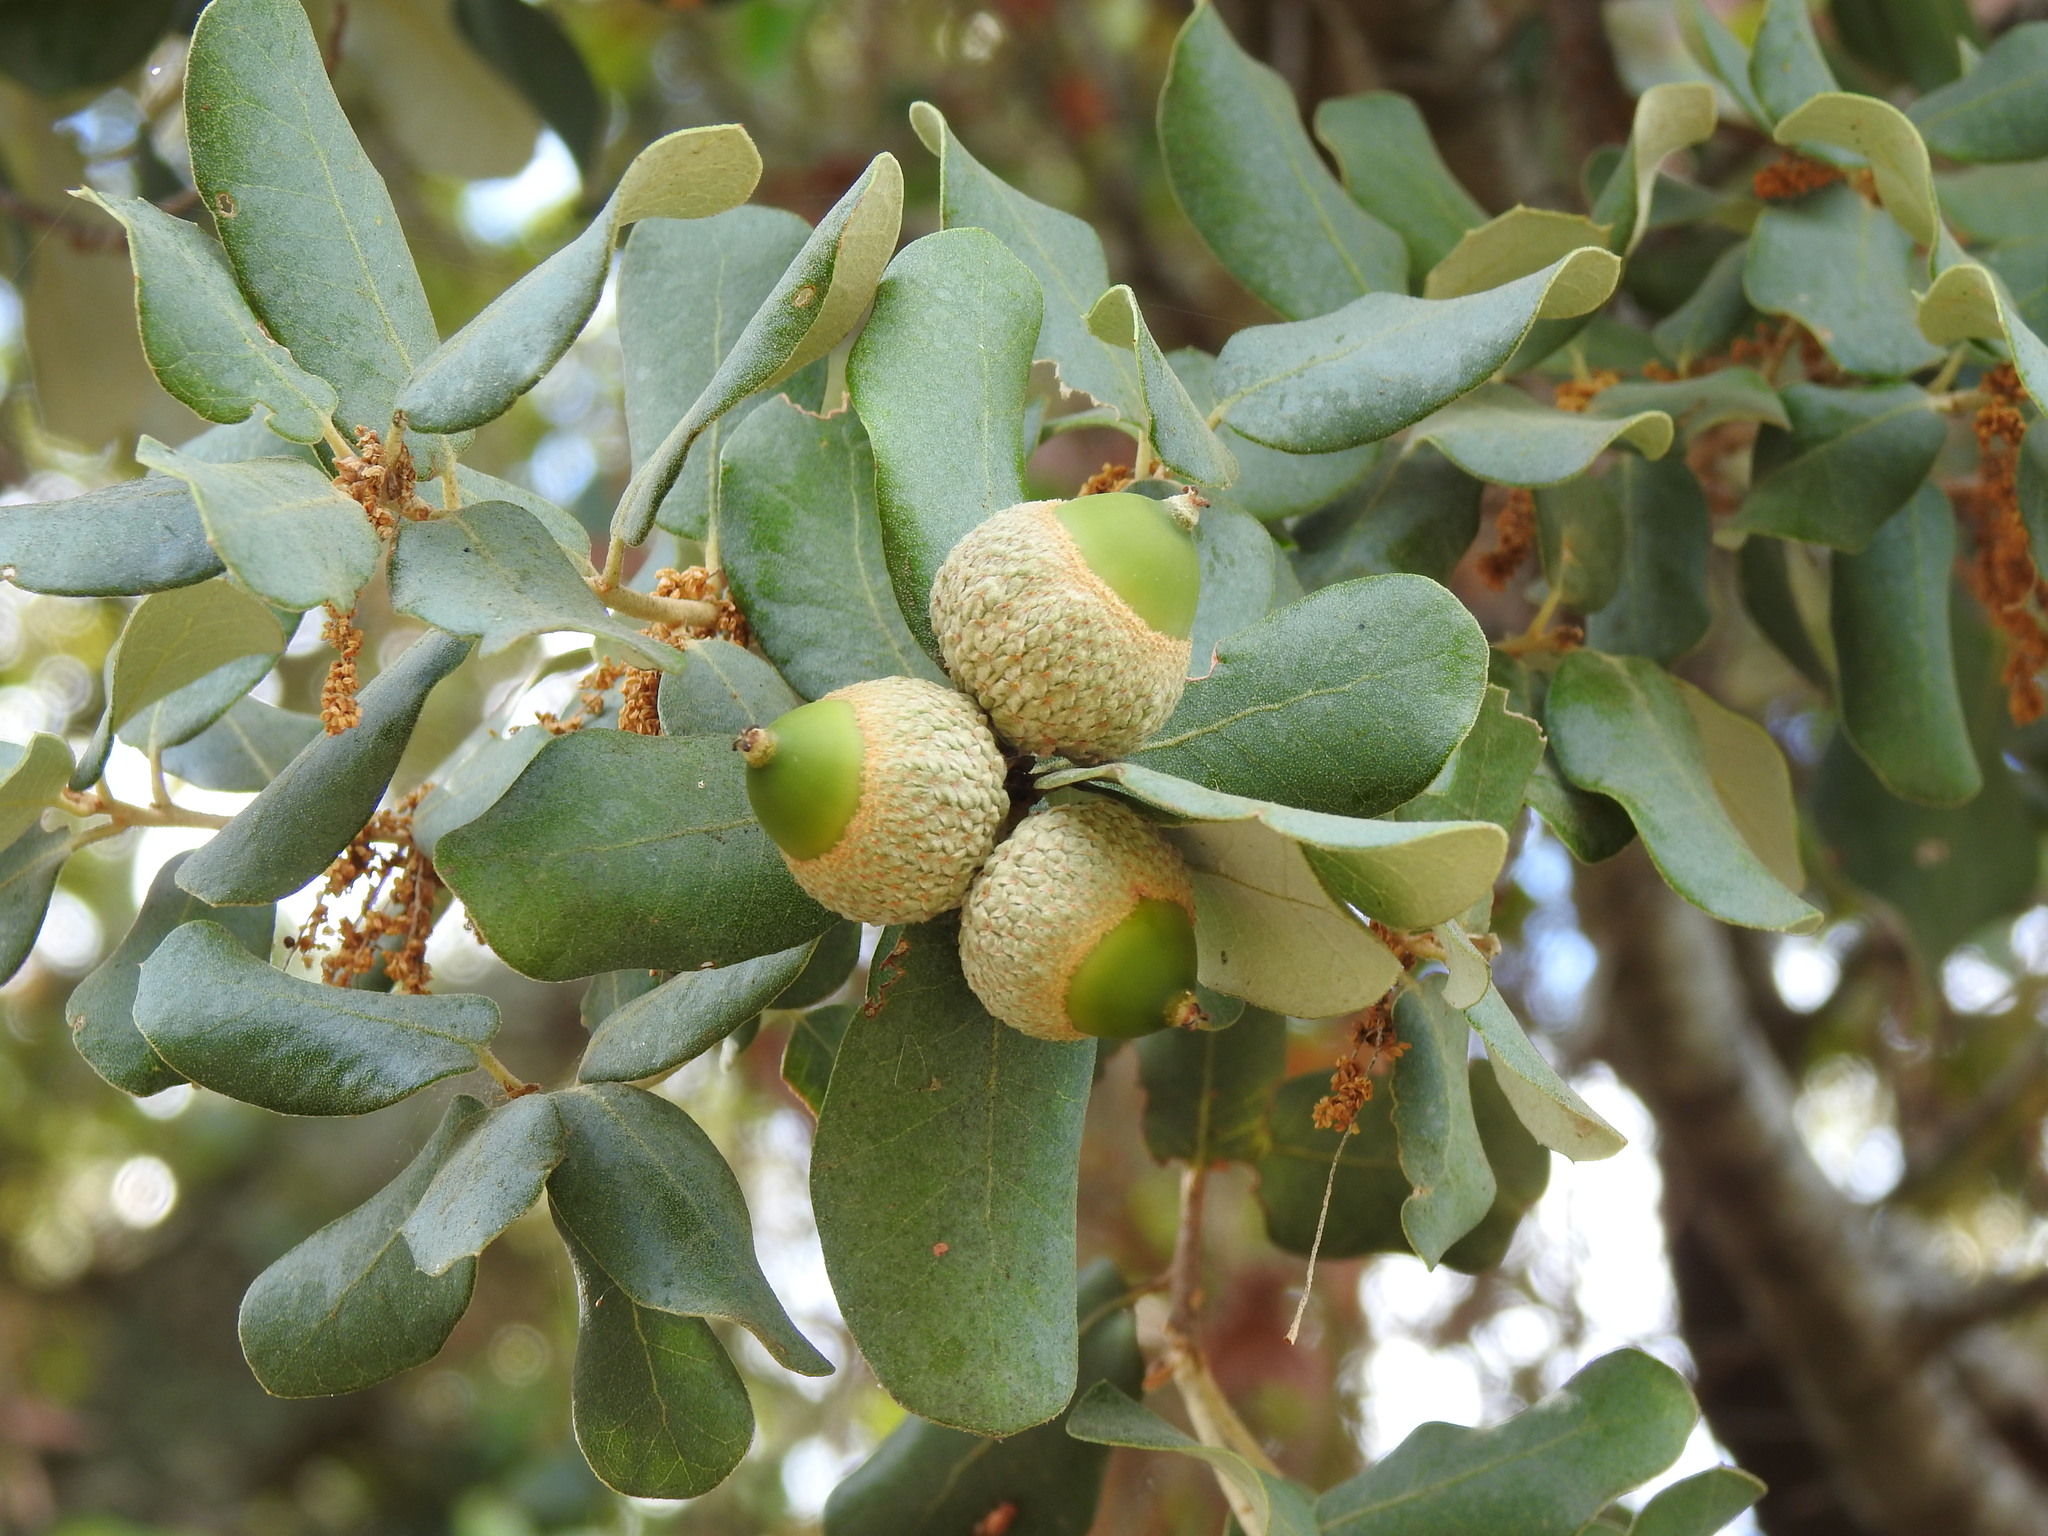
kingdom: Plantae
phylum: Tracheophyta
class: Magnoliopsida
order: Fagales
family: Fagaceae
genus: Quercus
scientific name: Quercus rotundifolia
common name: Holm oak
